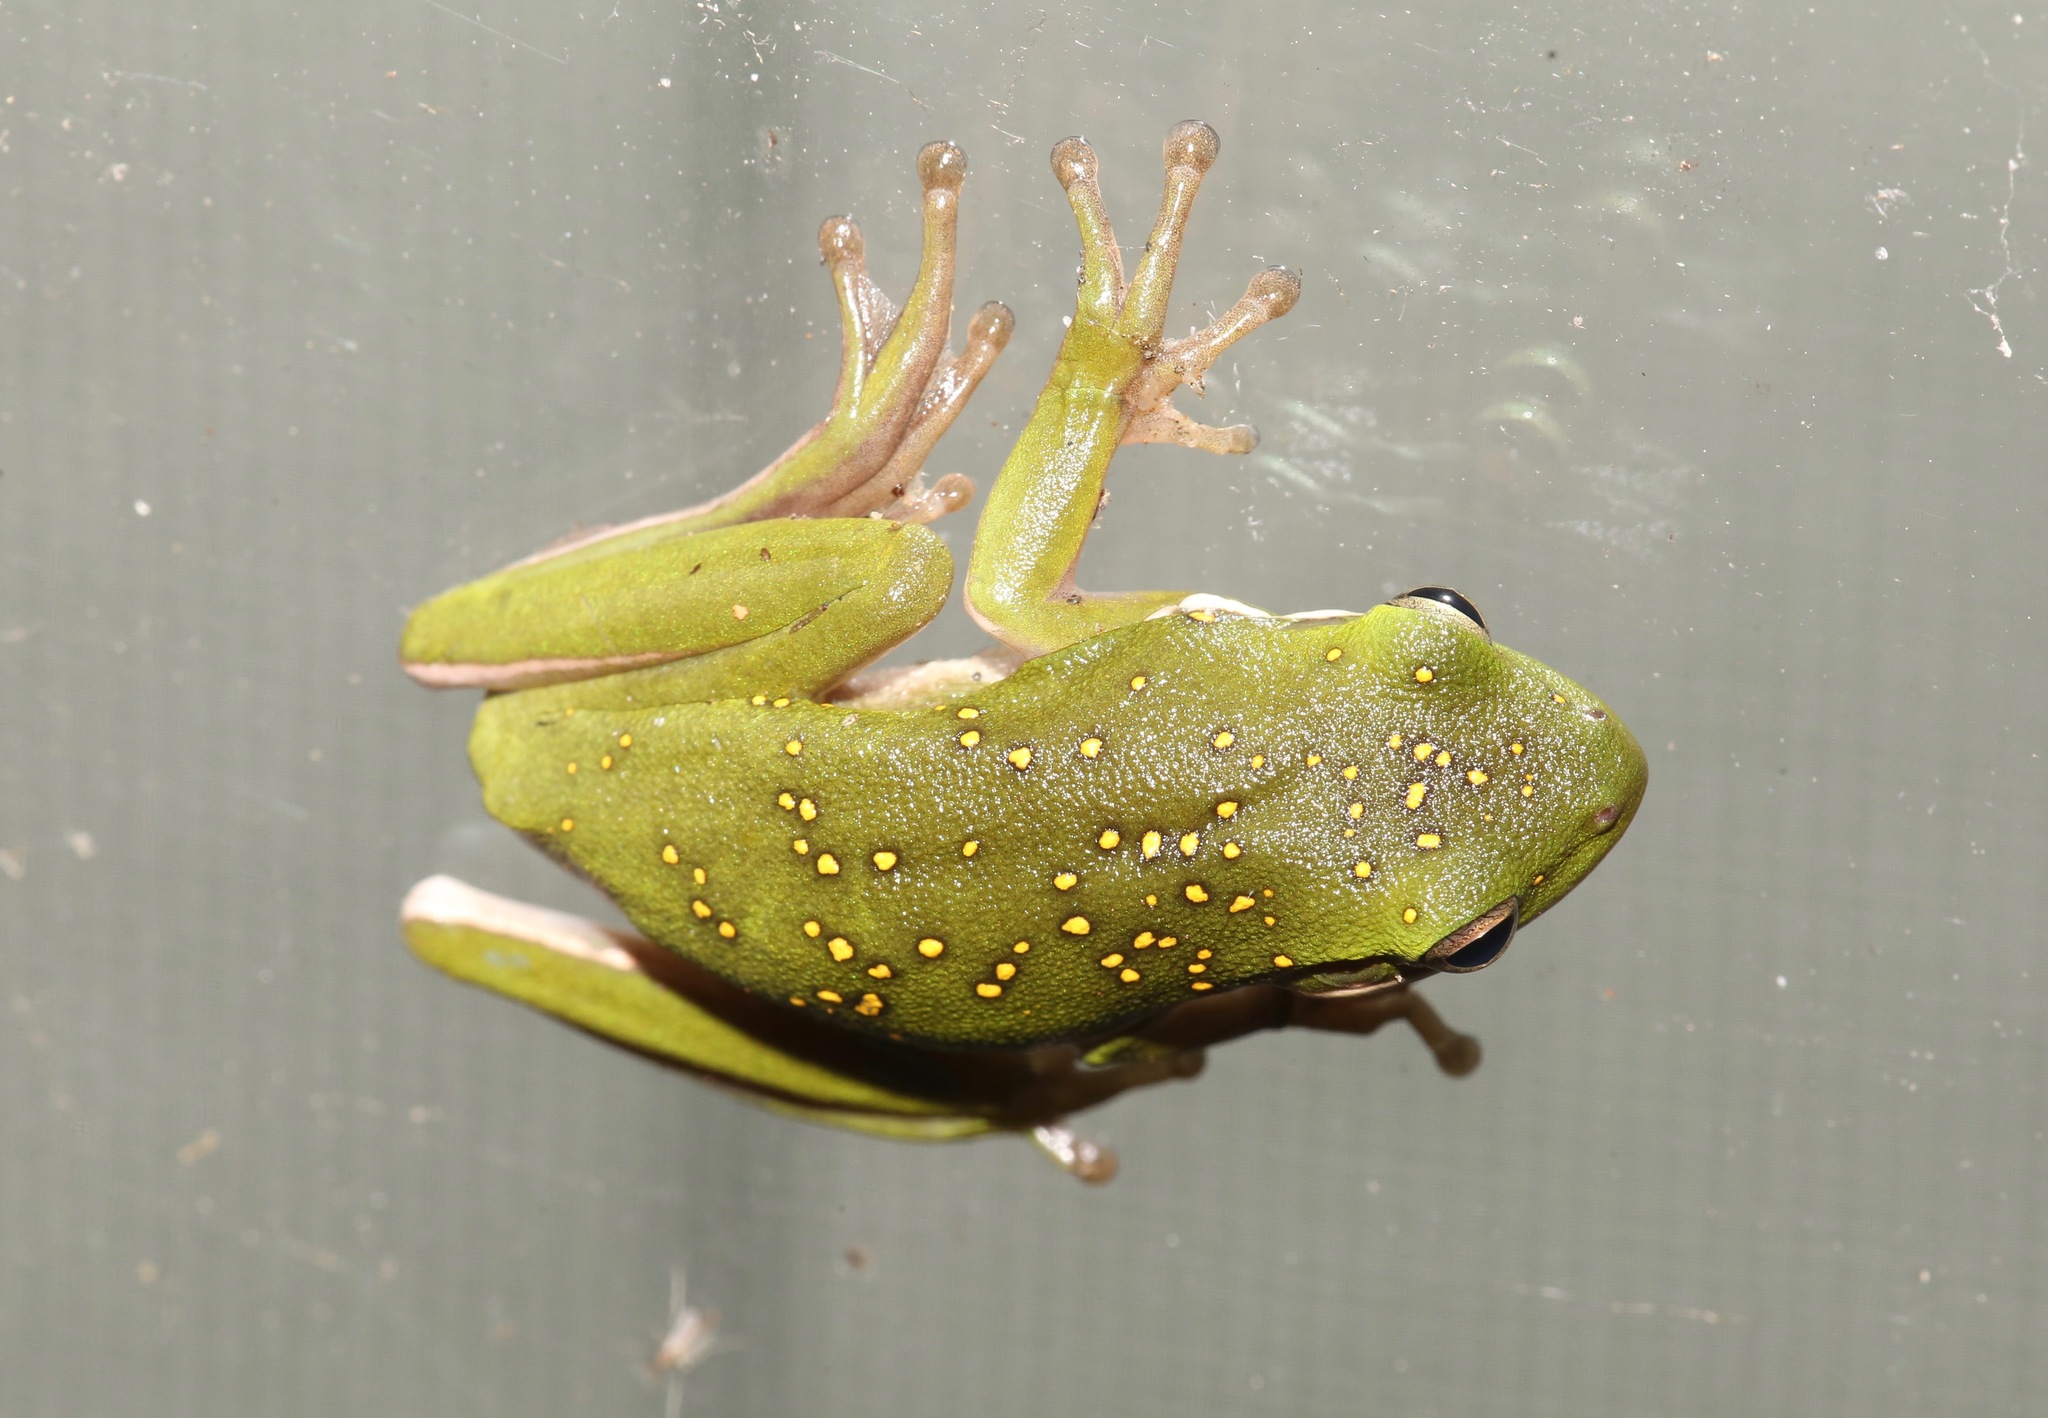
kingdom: Animalia
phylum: Chordata
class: Amphibia
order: Anura
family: Hylidae
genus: Dryophytes
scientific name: Dryophytes cinereus
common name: Green treefrog
